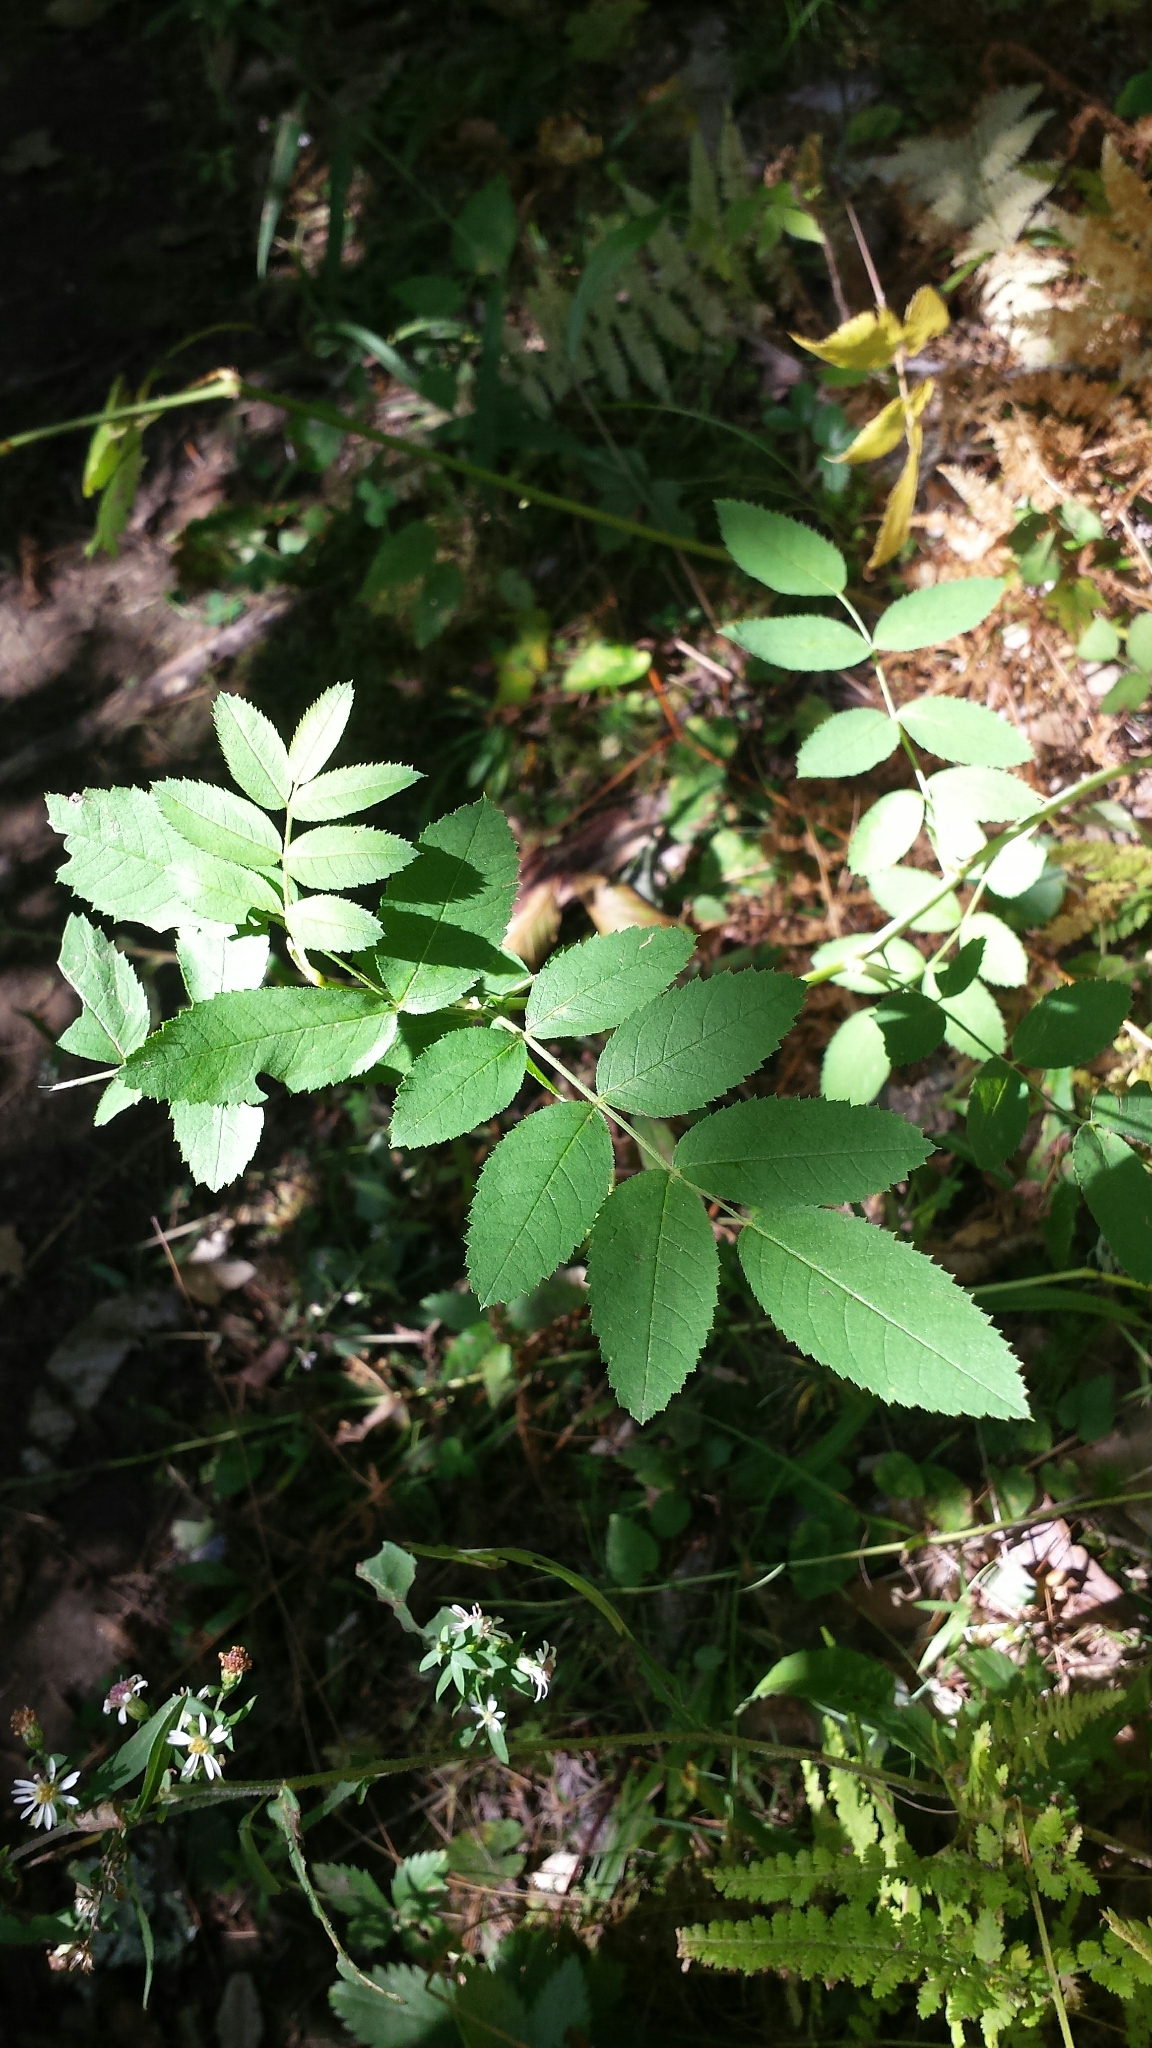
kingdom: Plantae
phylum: Tracheophyta
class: Magnoliopsida
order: Rosales
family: Rosaceae
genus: Rosa
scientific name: Rosa sherardii
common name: Sherard's downy rose
